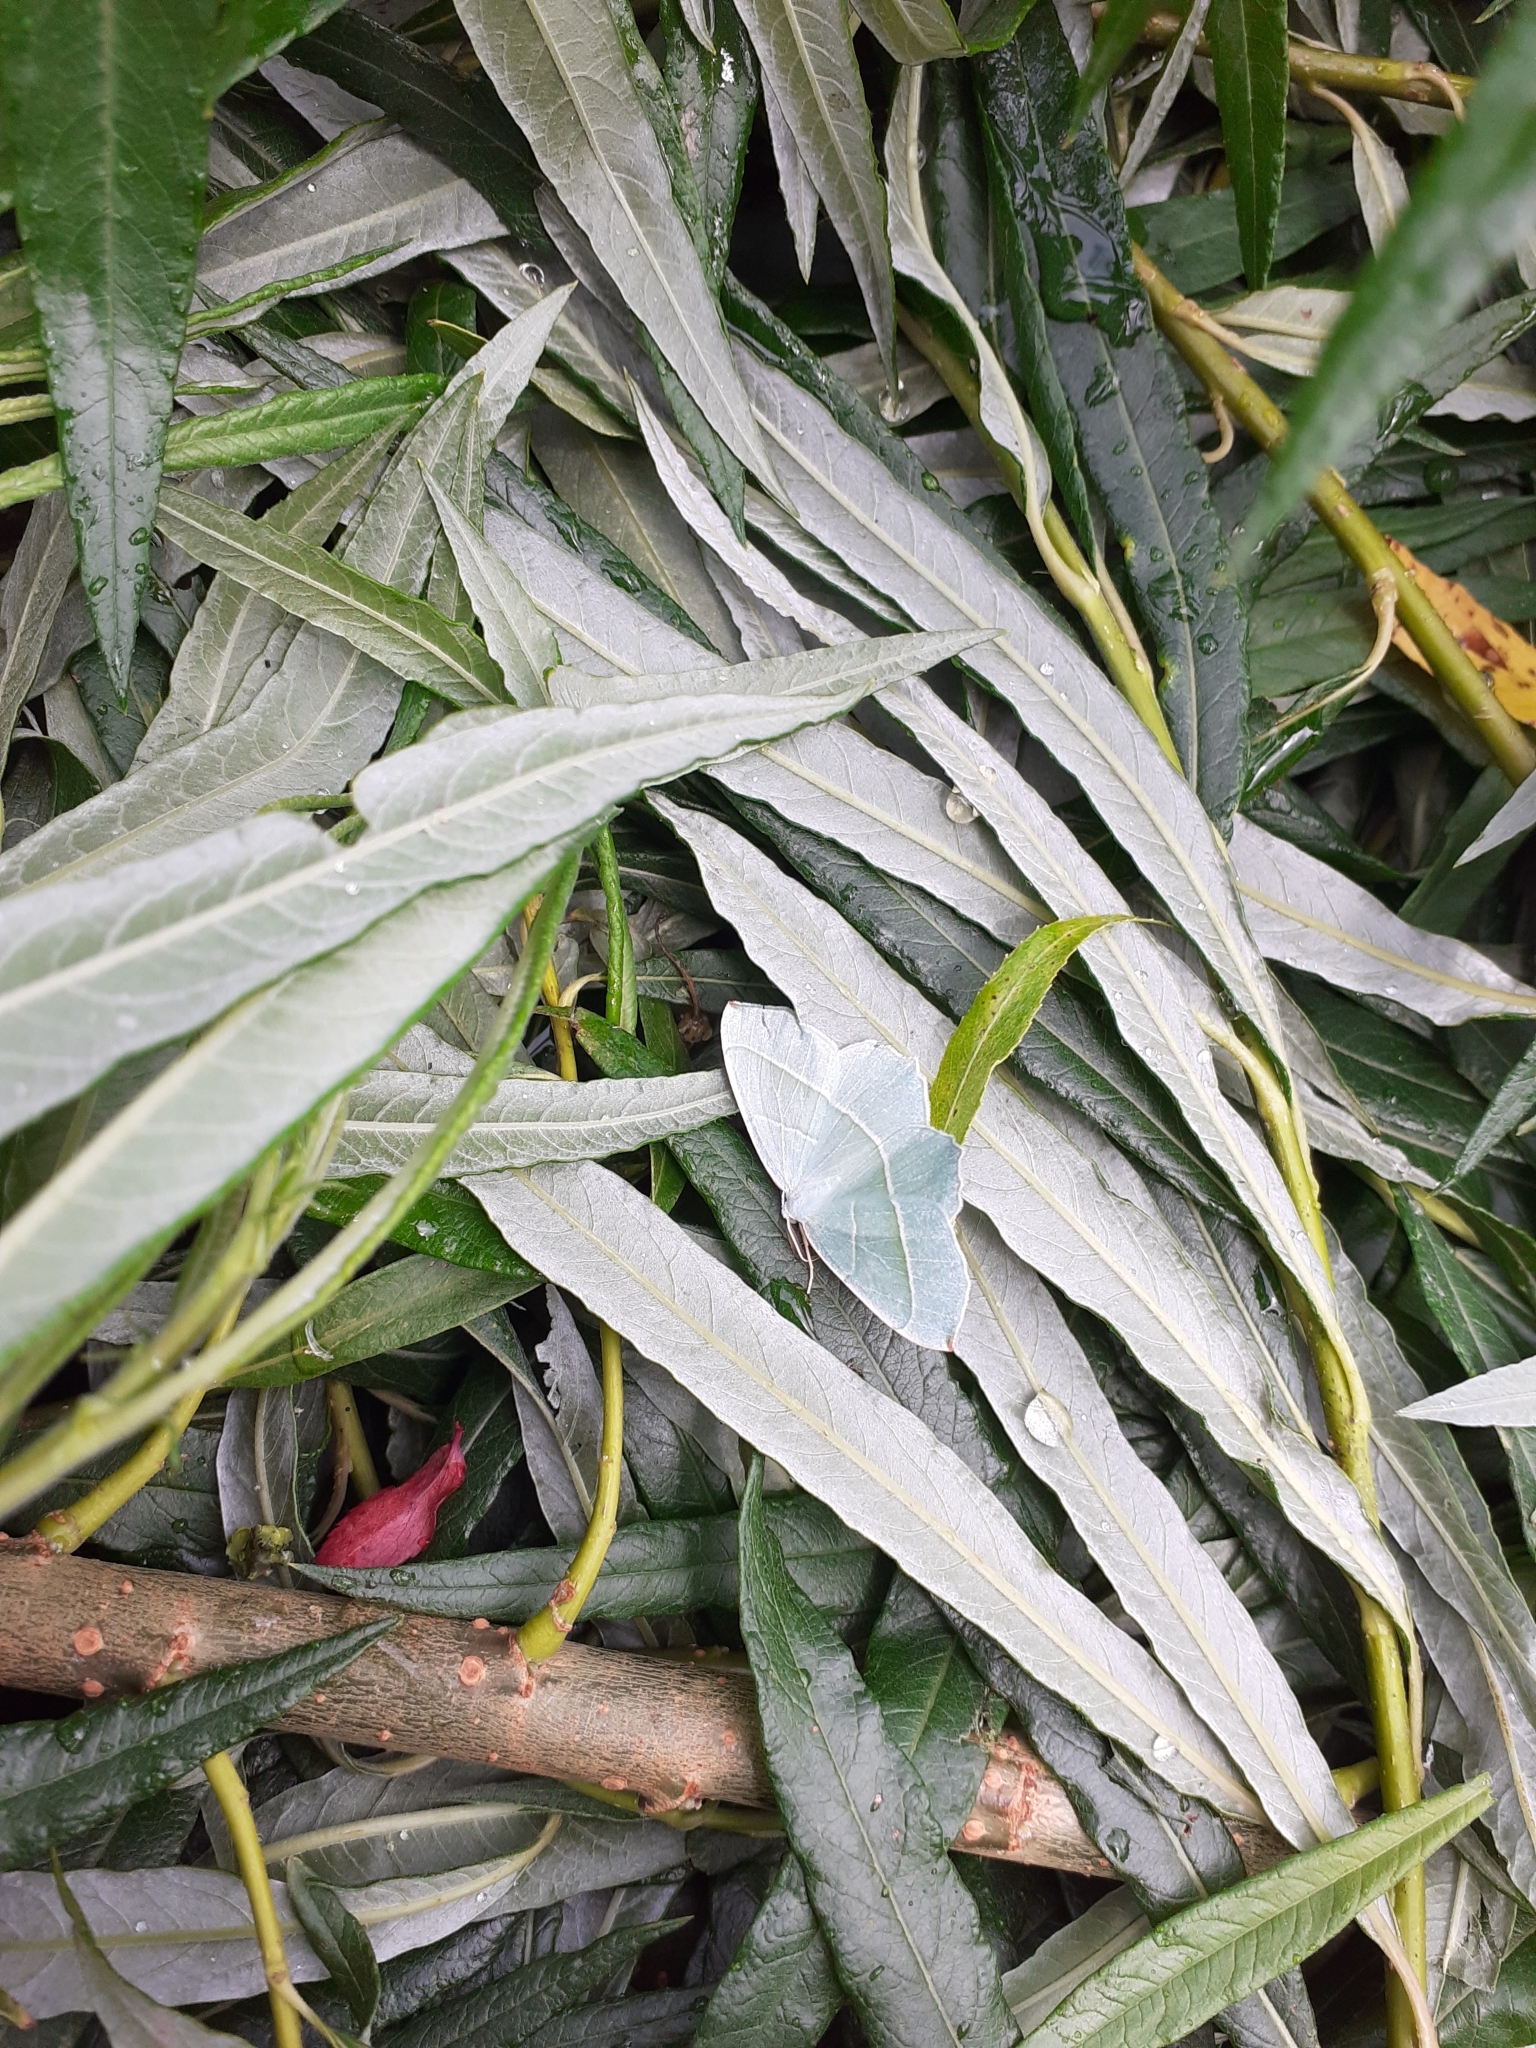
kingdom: Animalia
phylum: Arthropoda
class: Insecta
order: Lepidoptera
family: Geometridae
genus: Campaea
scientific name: Campaea margaritaria
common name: Light emerald
